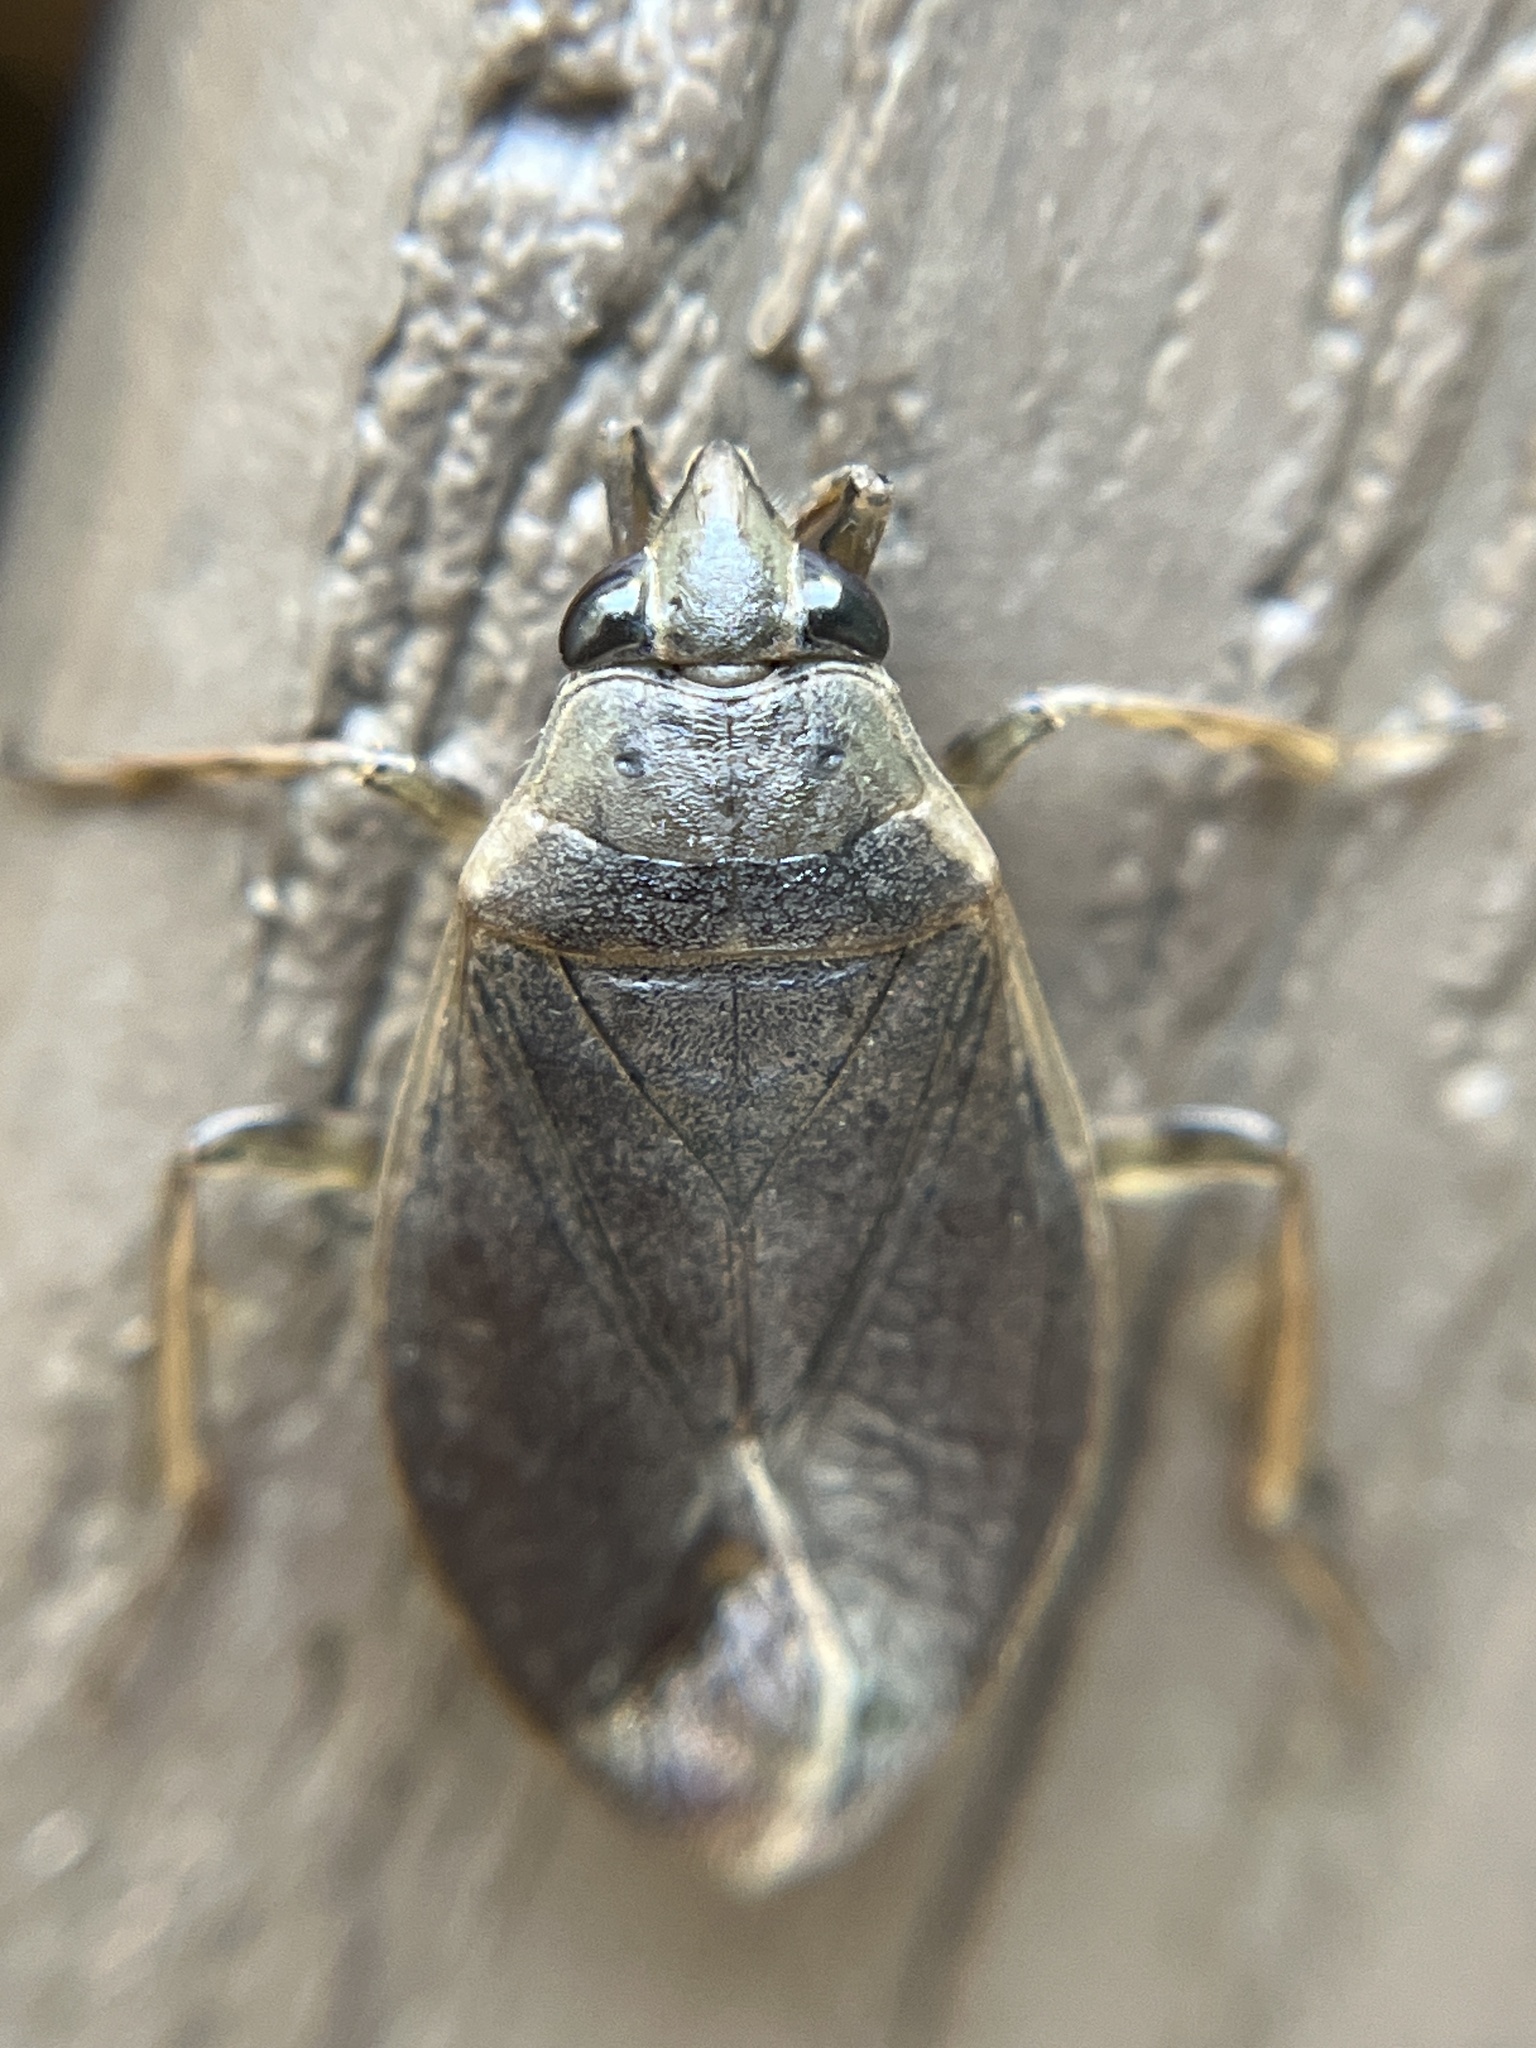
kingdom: Animalia
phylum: Arthropoda
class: Insecta
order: Hemiptera
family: Belostomatidae
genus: Belostoma
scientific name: Belostoma flumineum
